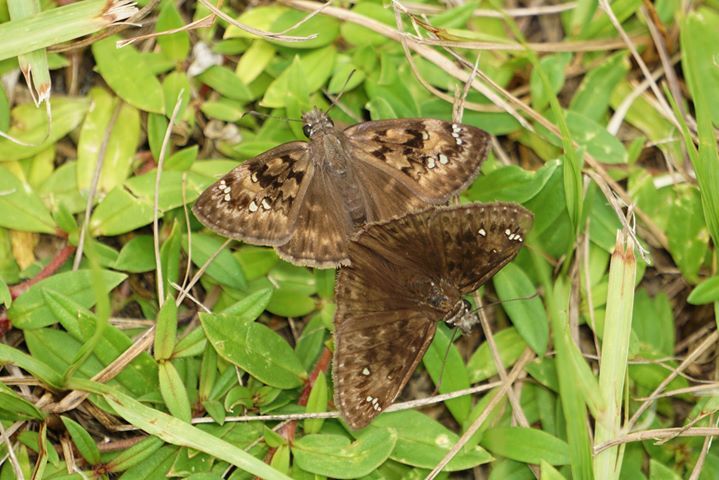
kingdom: Animalia
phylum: Arthropoda
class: Insecta
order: Lepidoptera
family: Hesperiidae
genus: Erynnis
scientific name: Erynnis horatius
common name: Horace's duskywing
